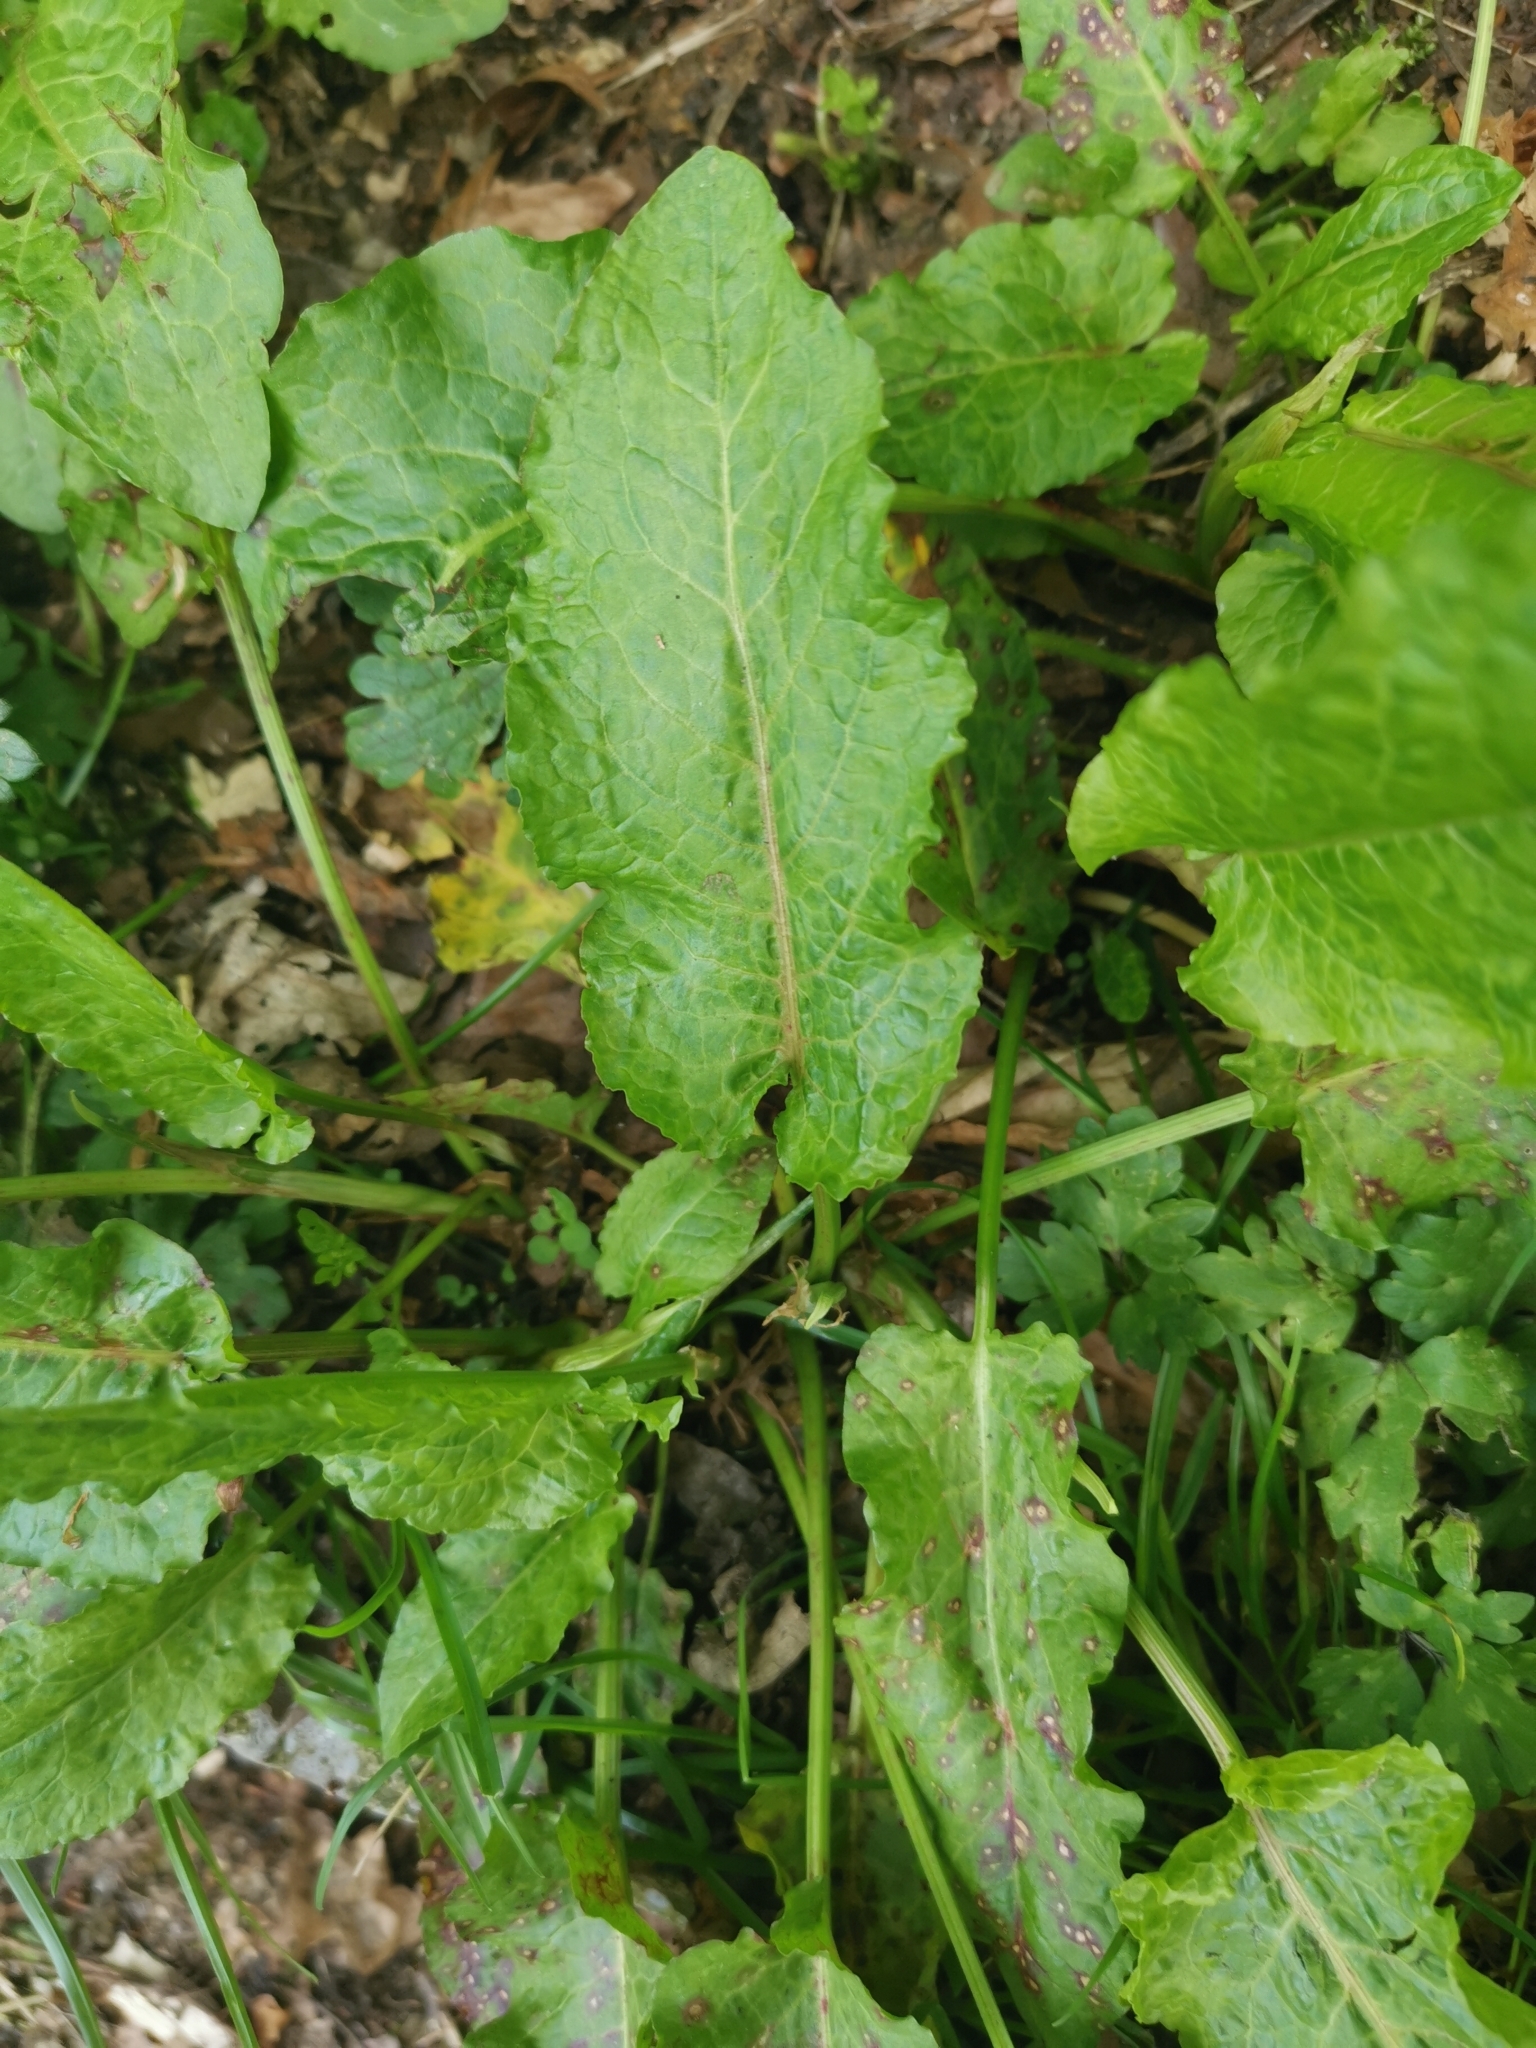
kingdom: Plantae
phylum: Tracheophyta
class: Magnoliopsida
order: Caryophyllales
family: Polygonaceae
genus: Rumex
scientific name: Rumex obtusifolius
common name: Bitter dock
